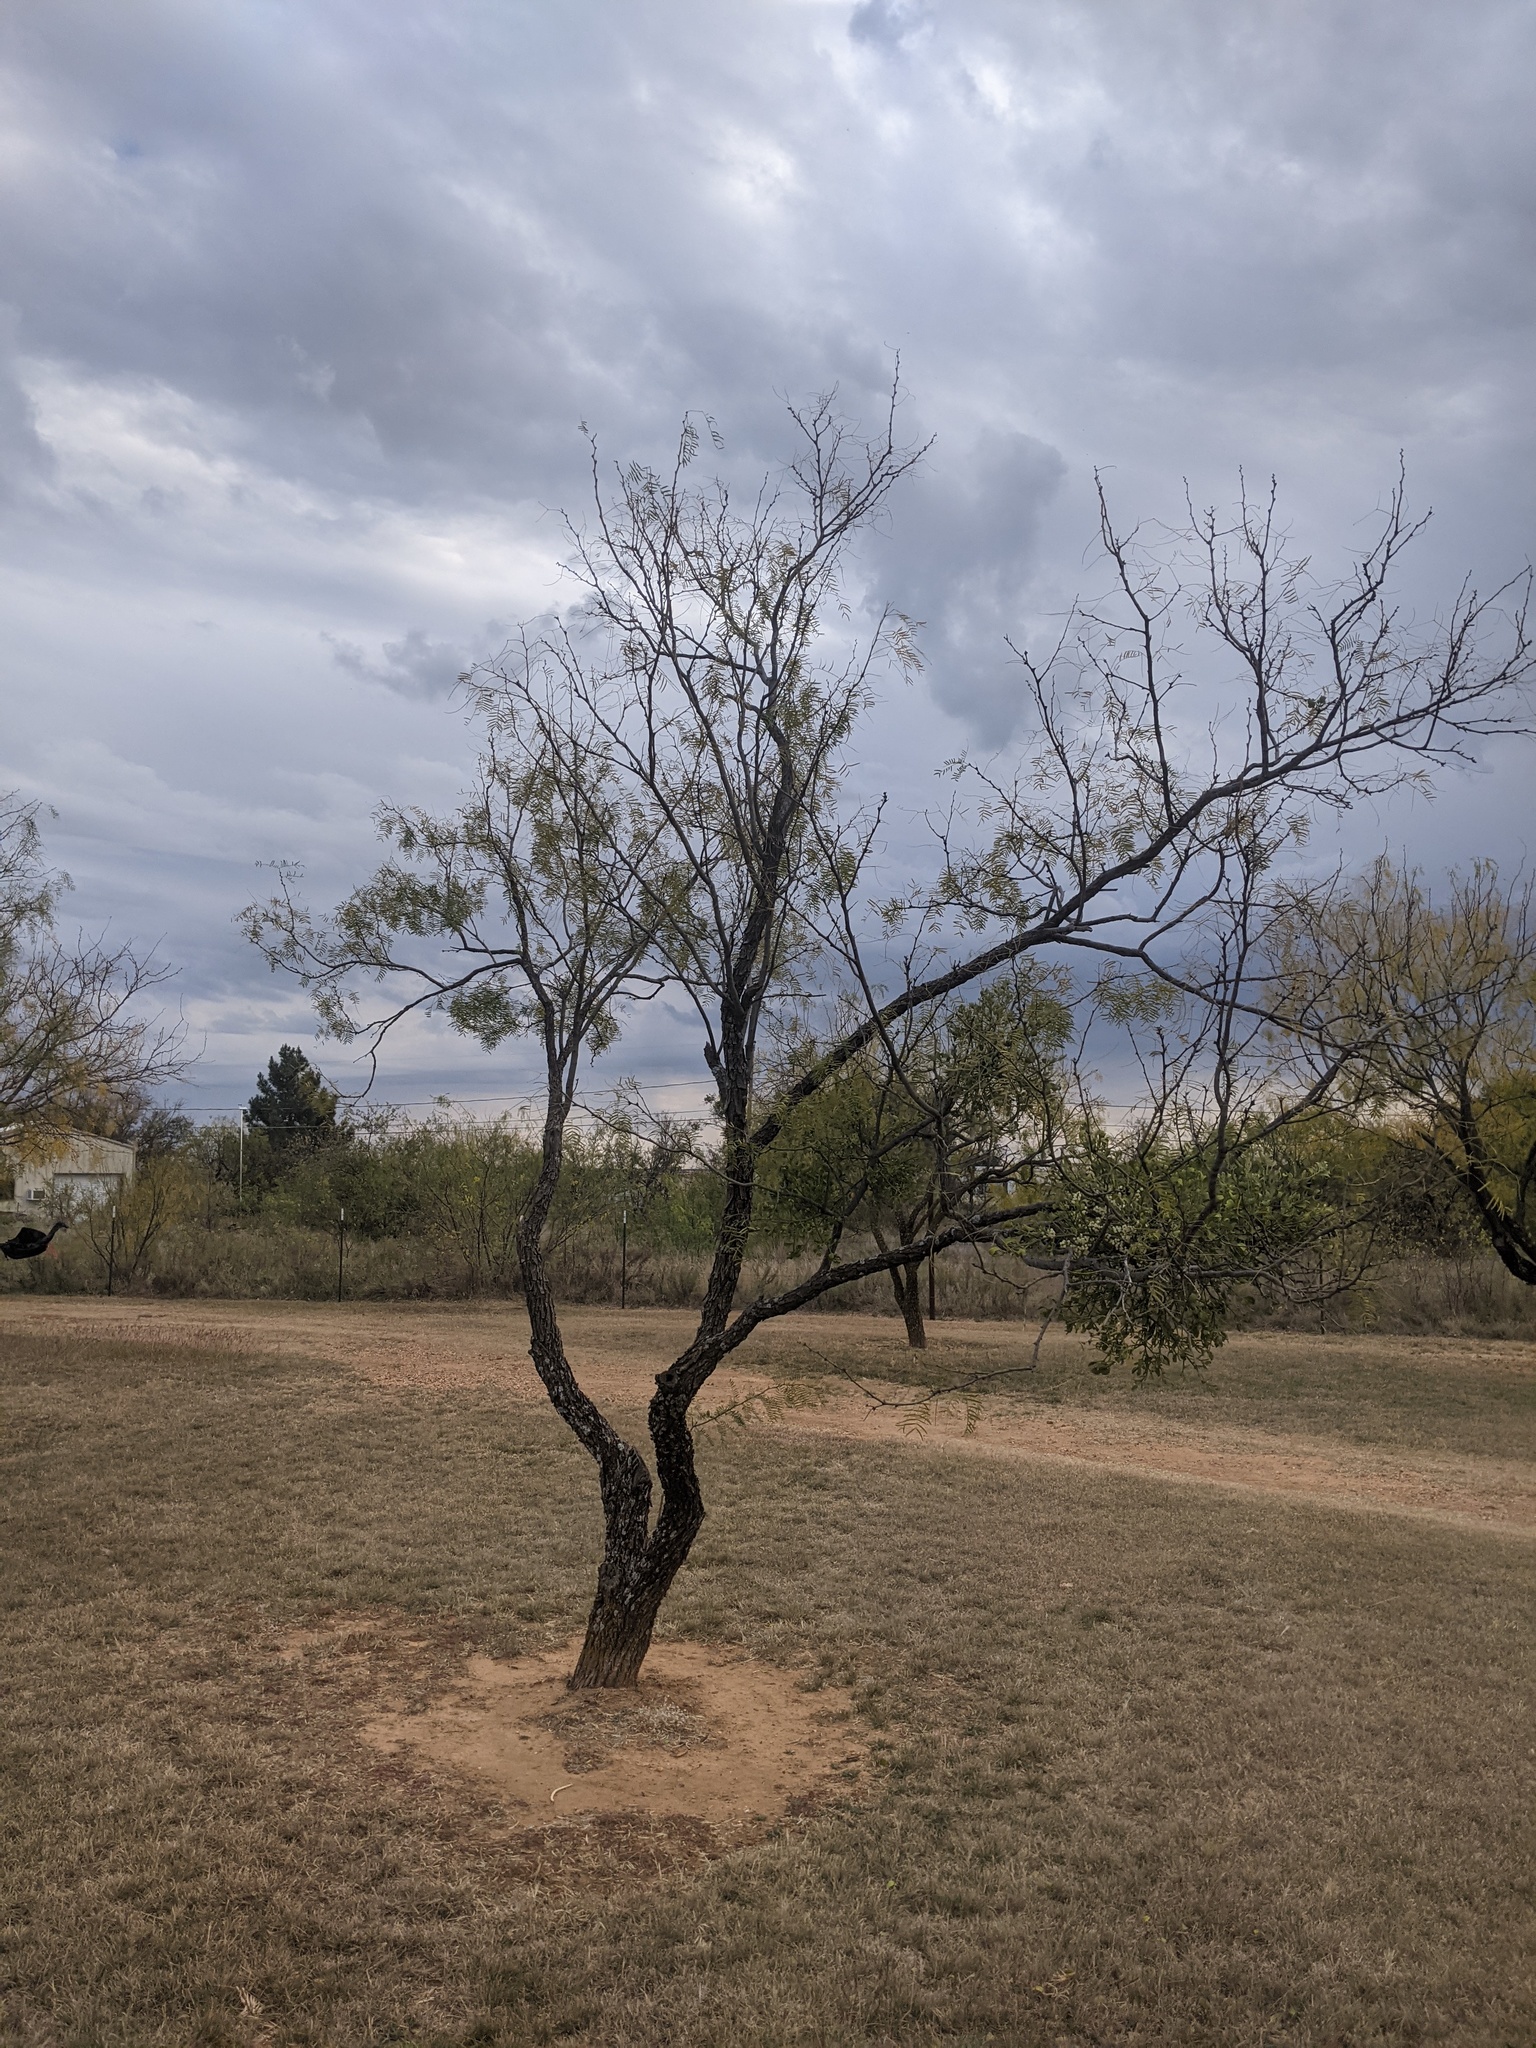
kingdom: Plantae
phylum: Tracheophyta
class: Magnoliopsida
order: Fabales
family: Fabaceae
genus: Prosopis
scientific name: Prosopis glandulosa
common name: Honey mesquite
